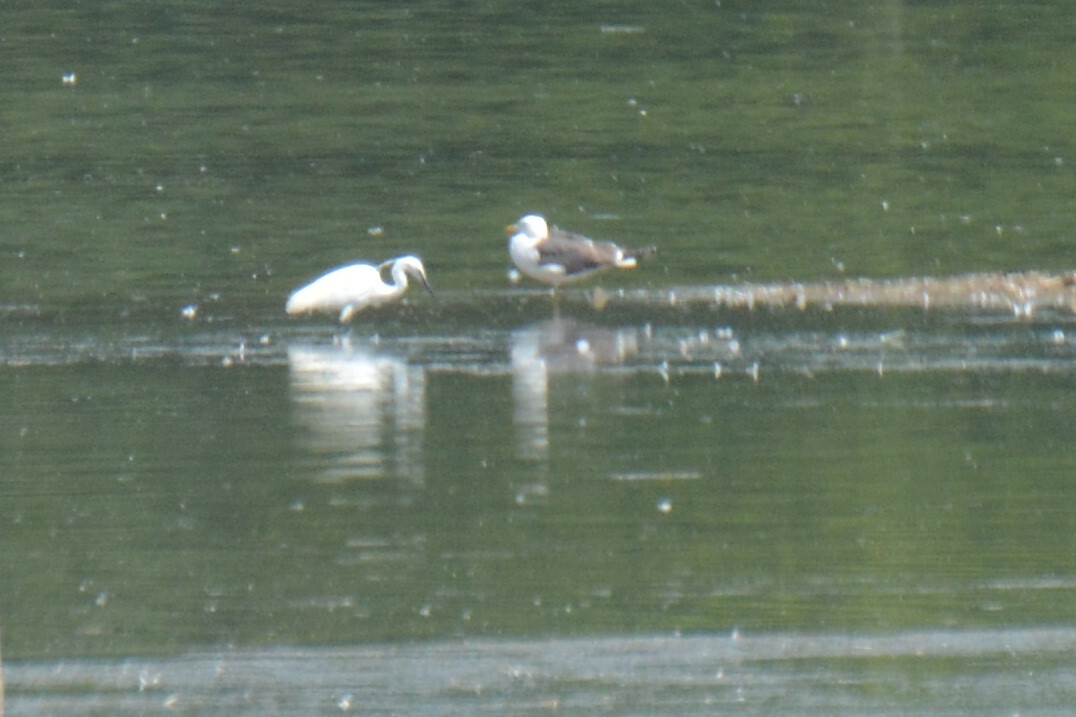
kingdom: Animalia
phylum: Chordata
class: Aves
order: Pelecaniformes
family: Ardeidae
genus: Egretta
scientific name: Egretta garzetta
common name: Little egret
